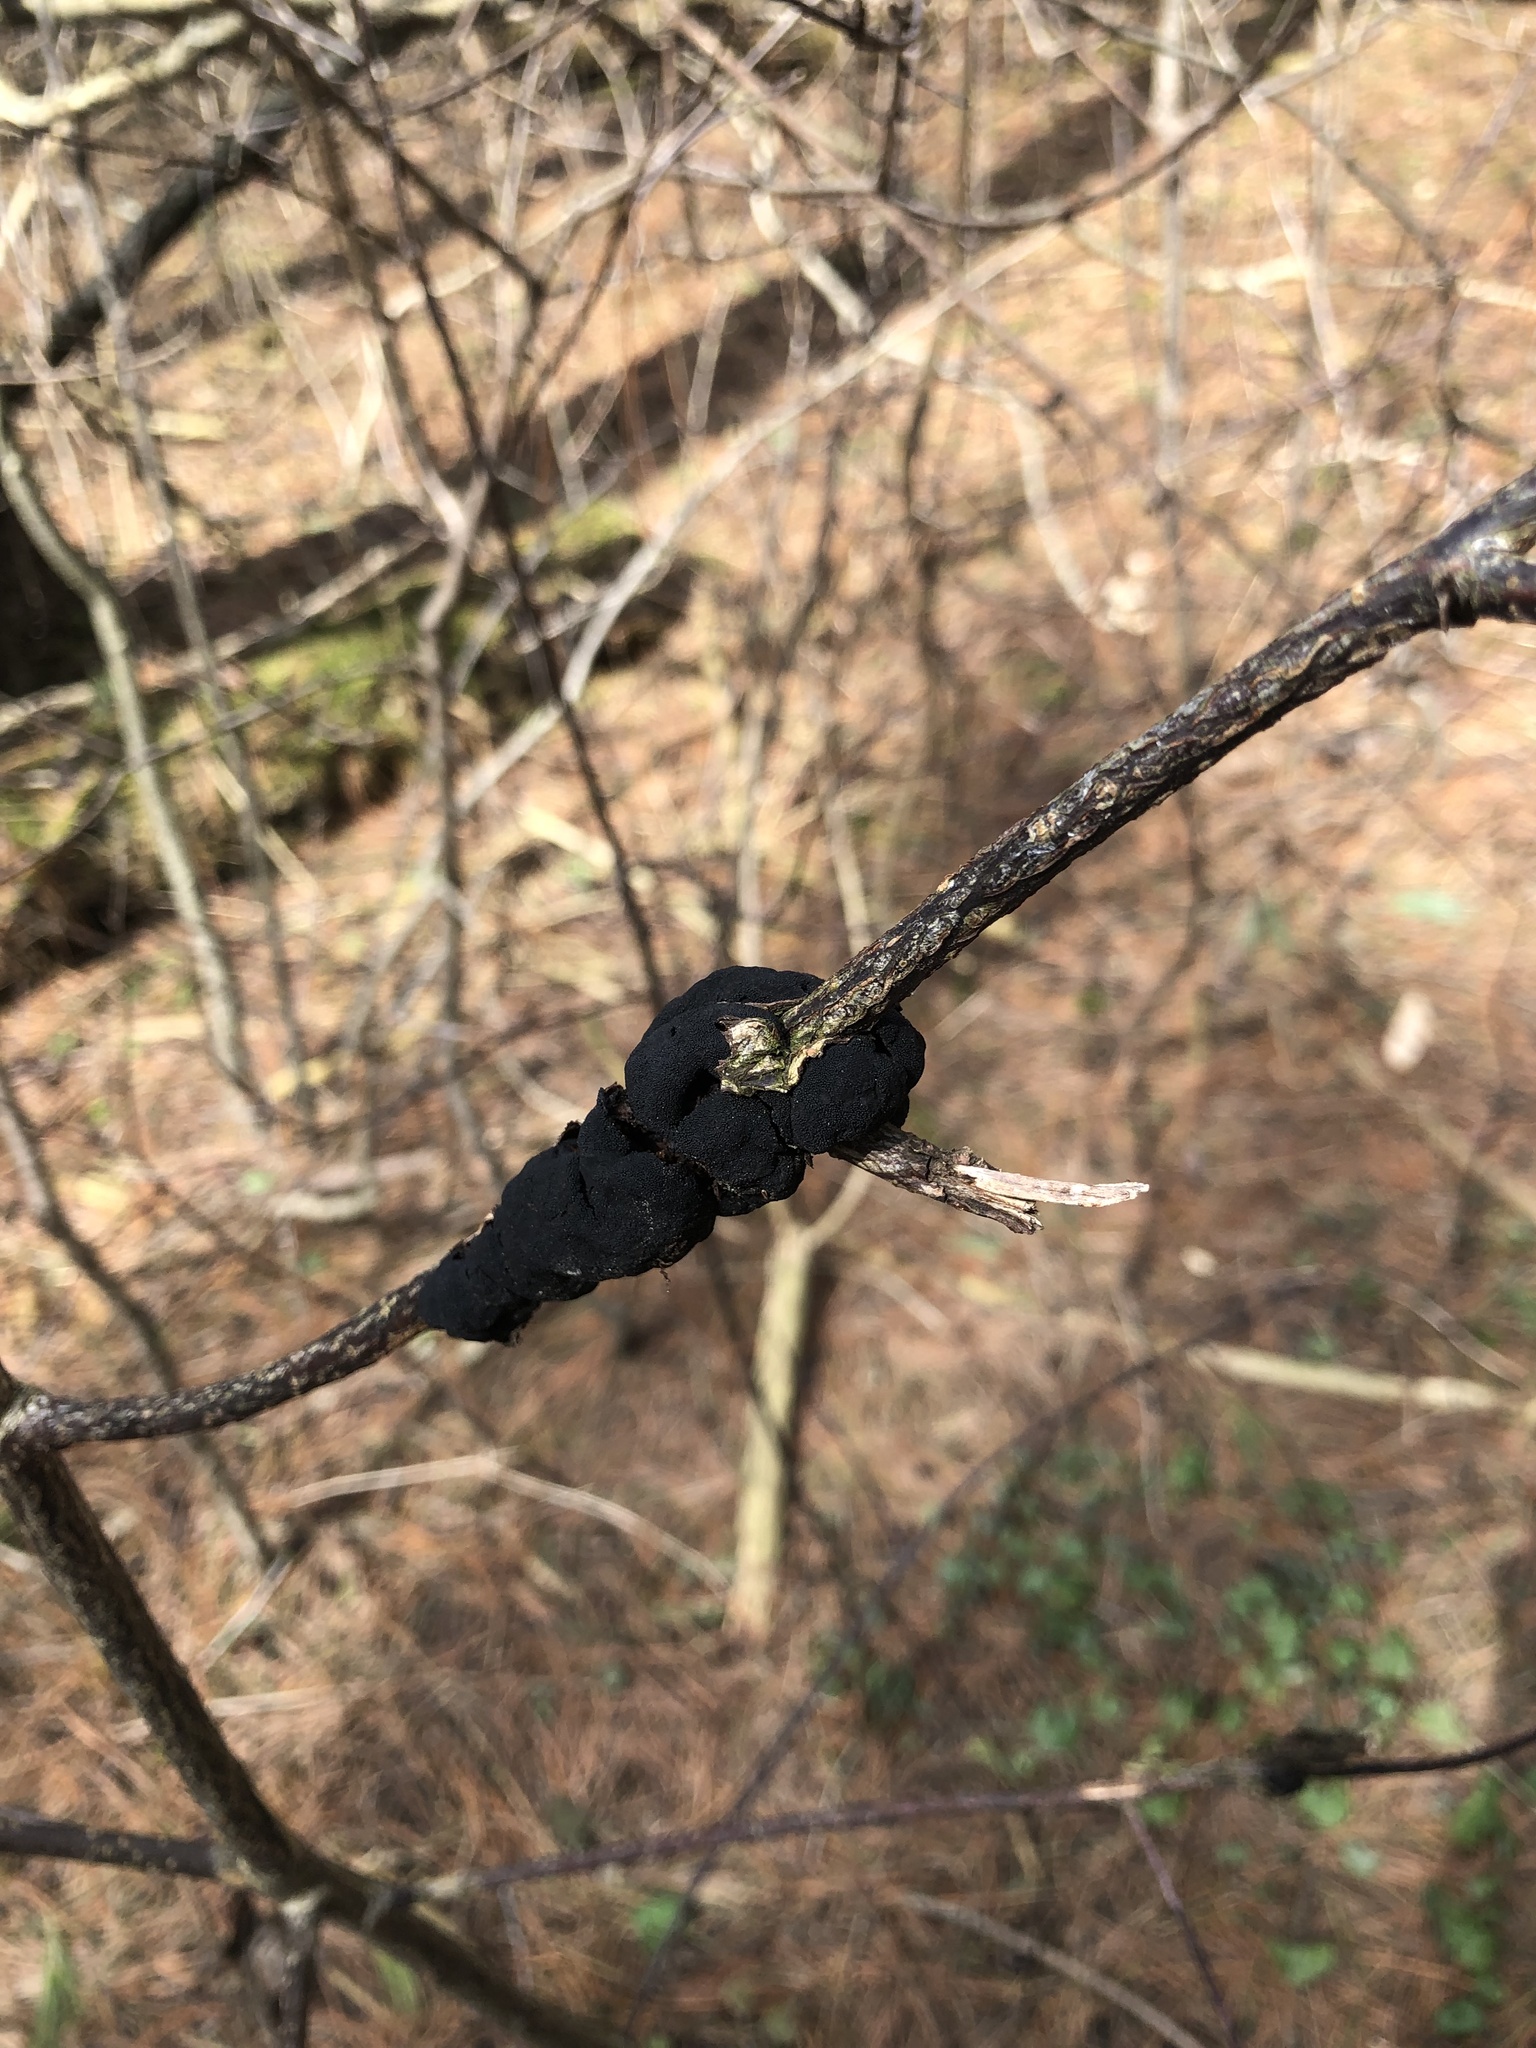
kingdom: Fungi
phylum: Ascomycota
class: Dothideomycetes
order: Venturiales
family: Venturiaceae
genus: Apiosporina
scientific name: Apiosporina morbosa
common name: Black knot
